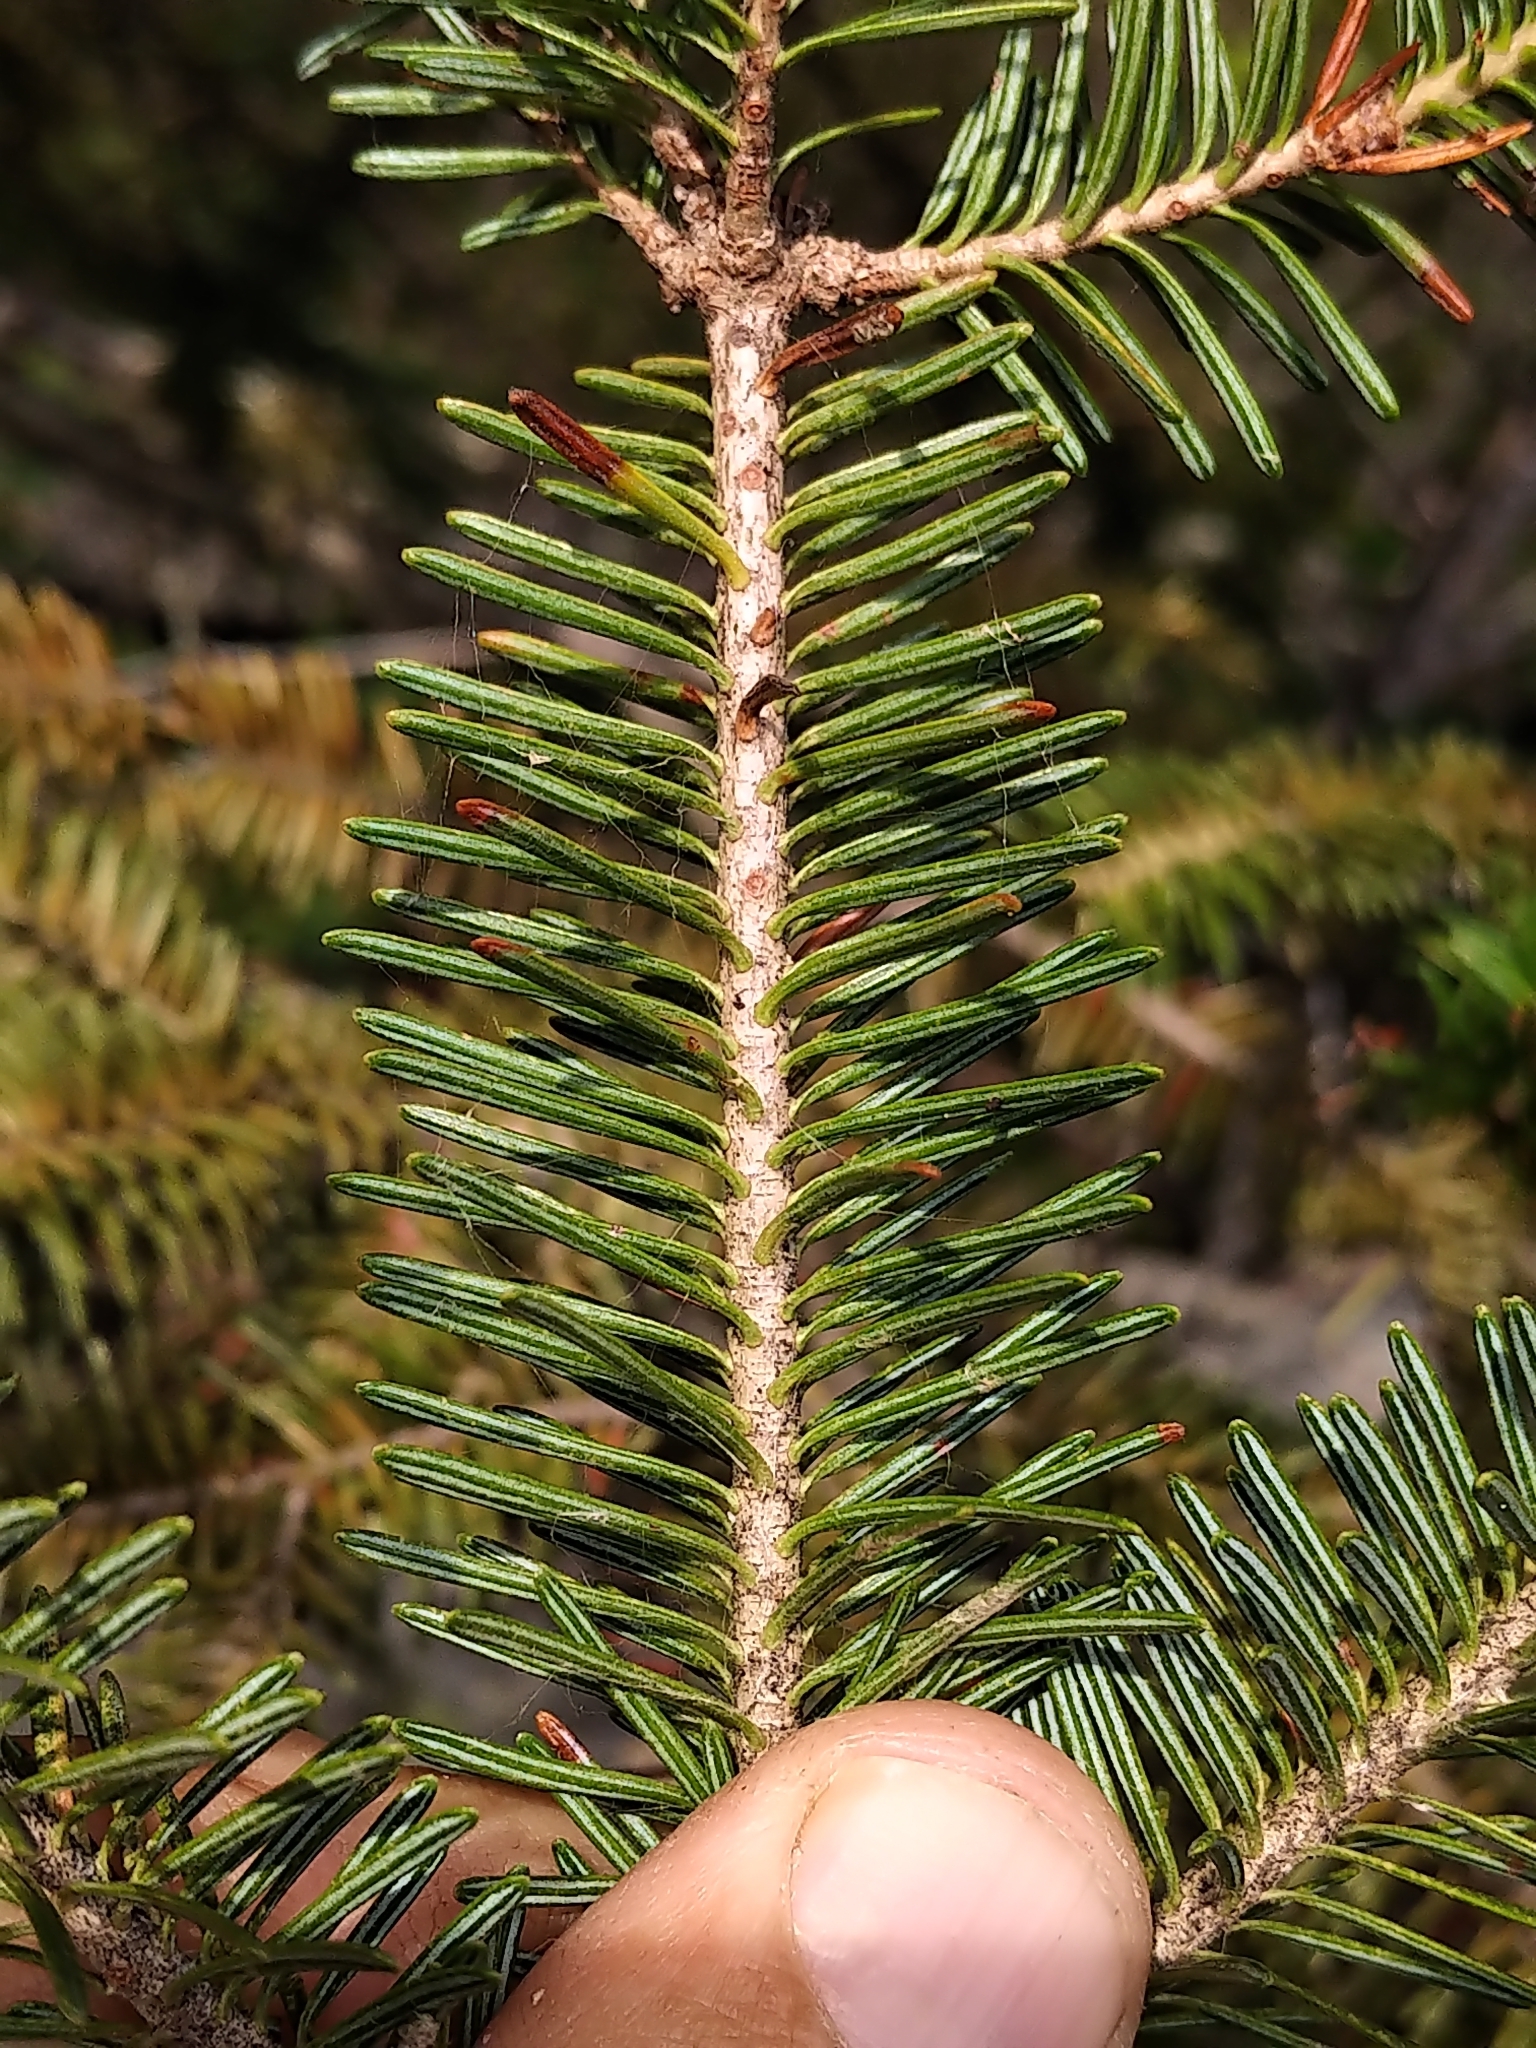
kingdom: Plantae
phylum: Tracheophyta
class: Pinopsida
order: Pinales
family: Pinaceae
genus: Abies
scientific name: Abies balsamea
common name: Balsam fir
